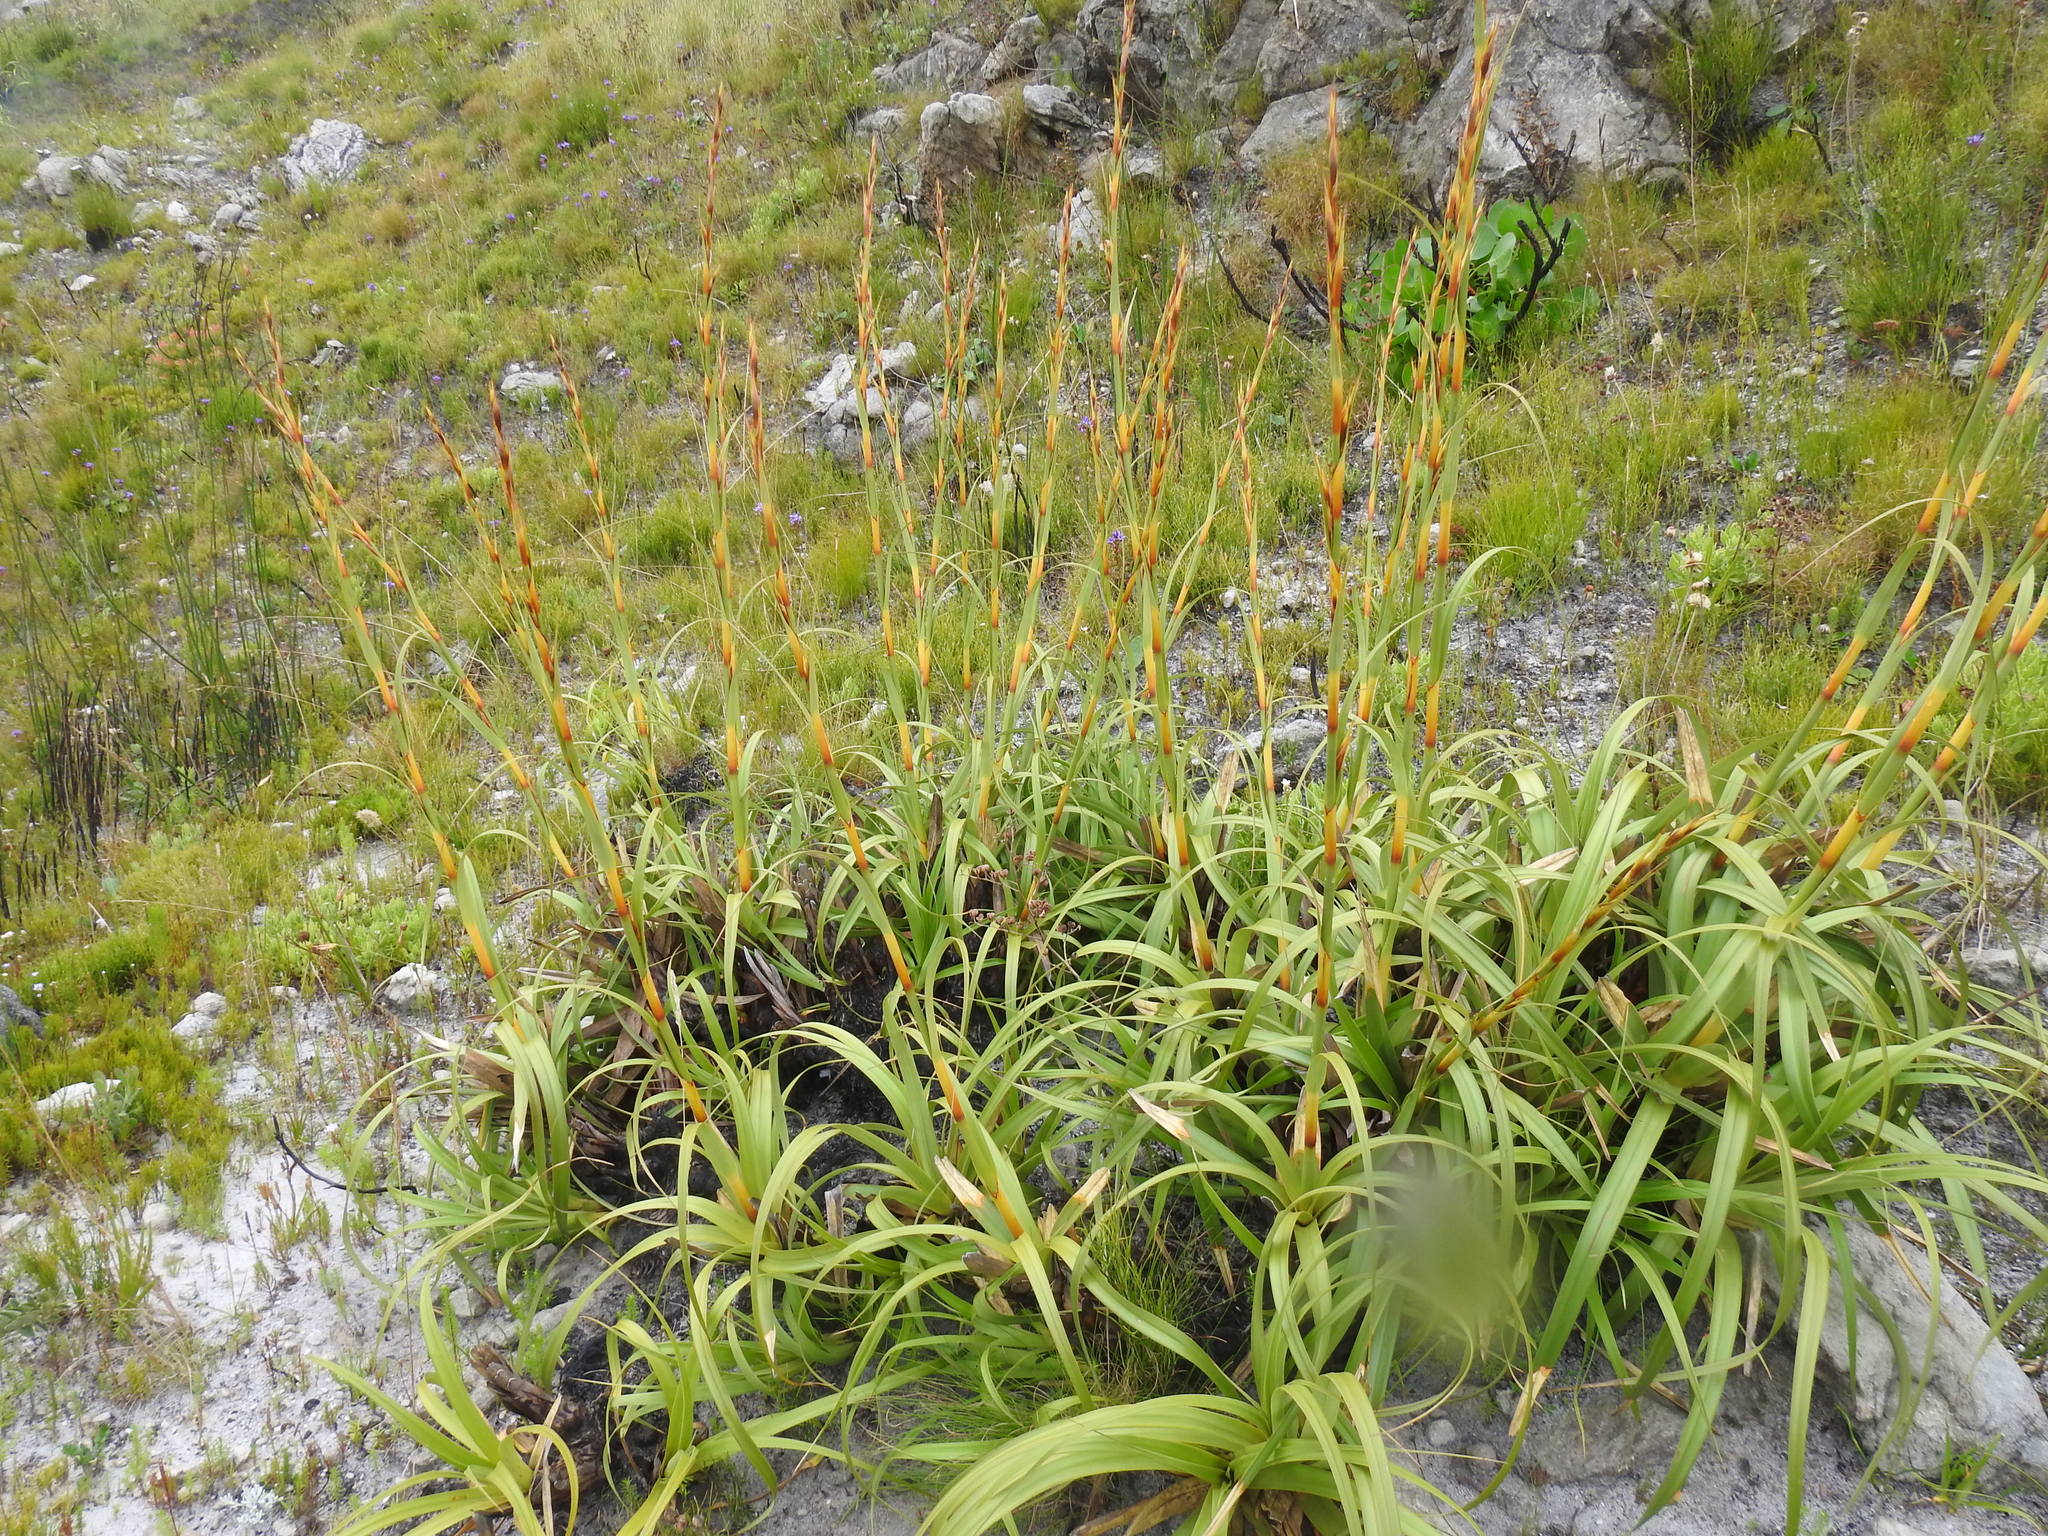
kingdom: Plantae
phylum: Tracheophyta
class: Liliopsida
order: Poales
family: Cyperaceae
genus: Tetraria
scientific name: Tetraria thermalis
